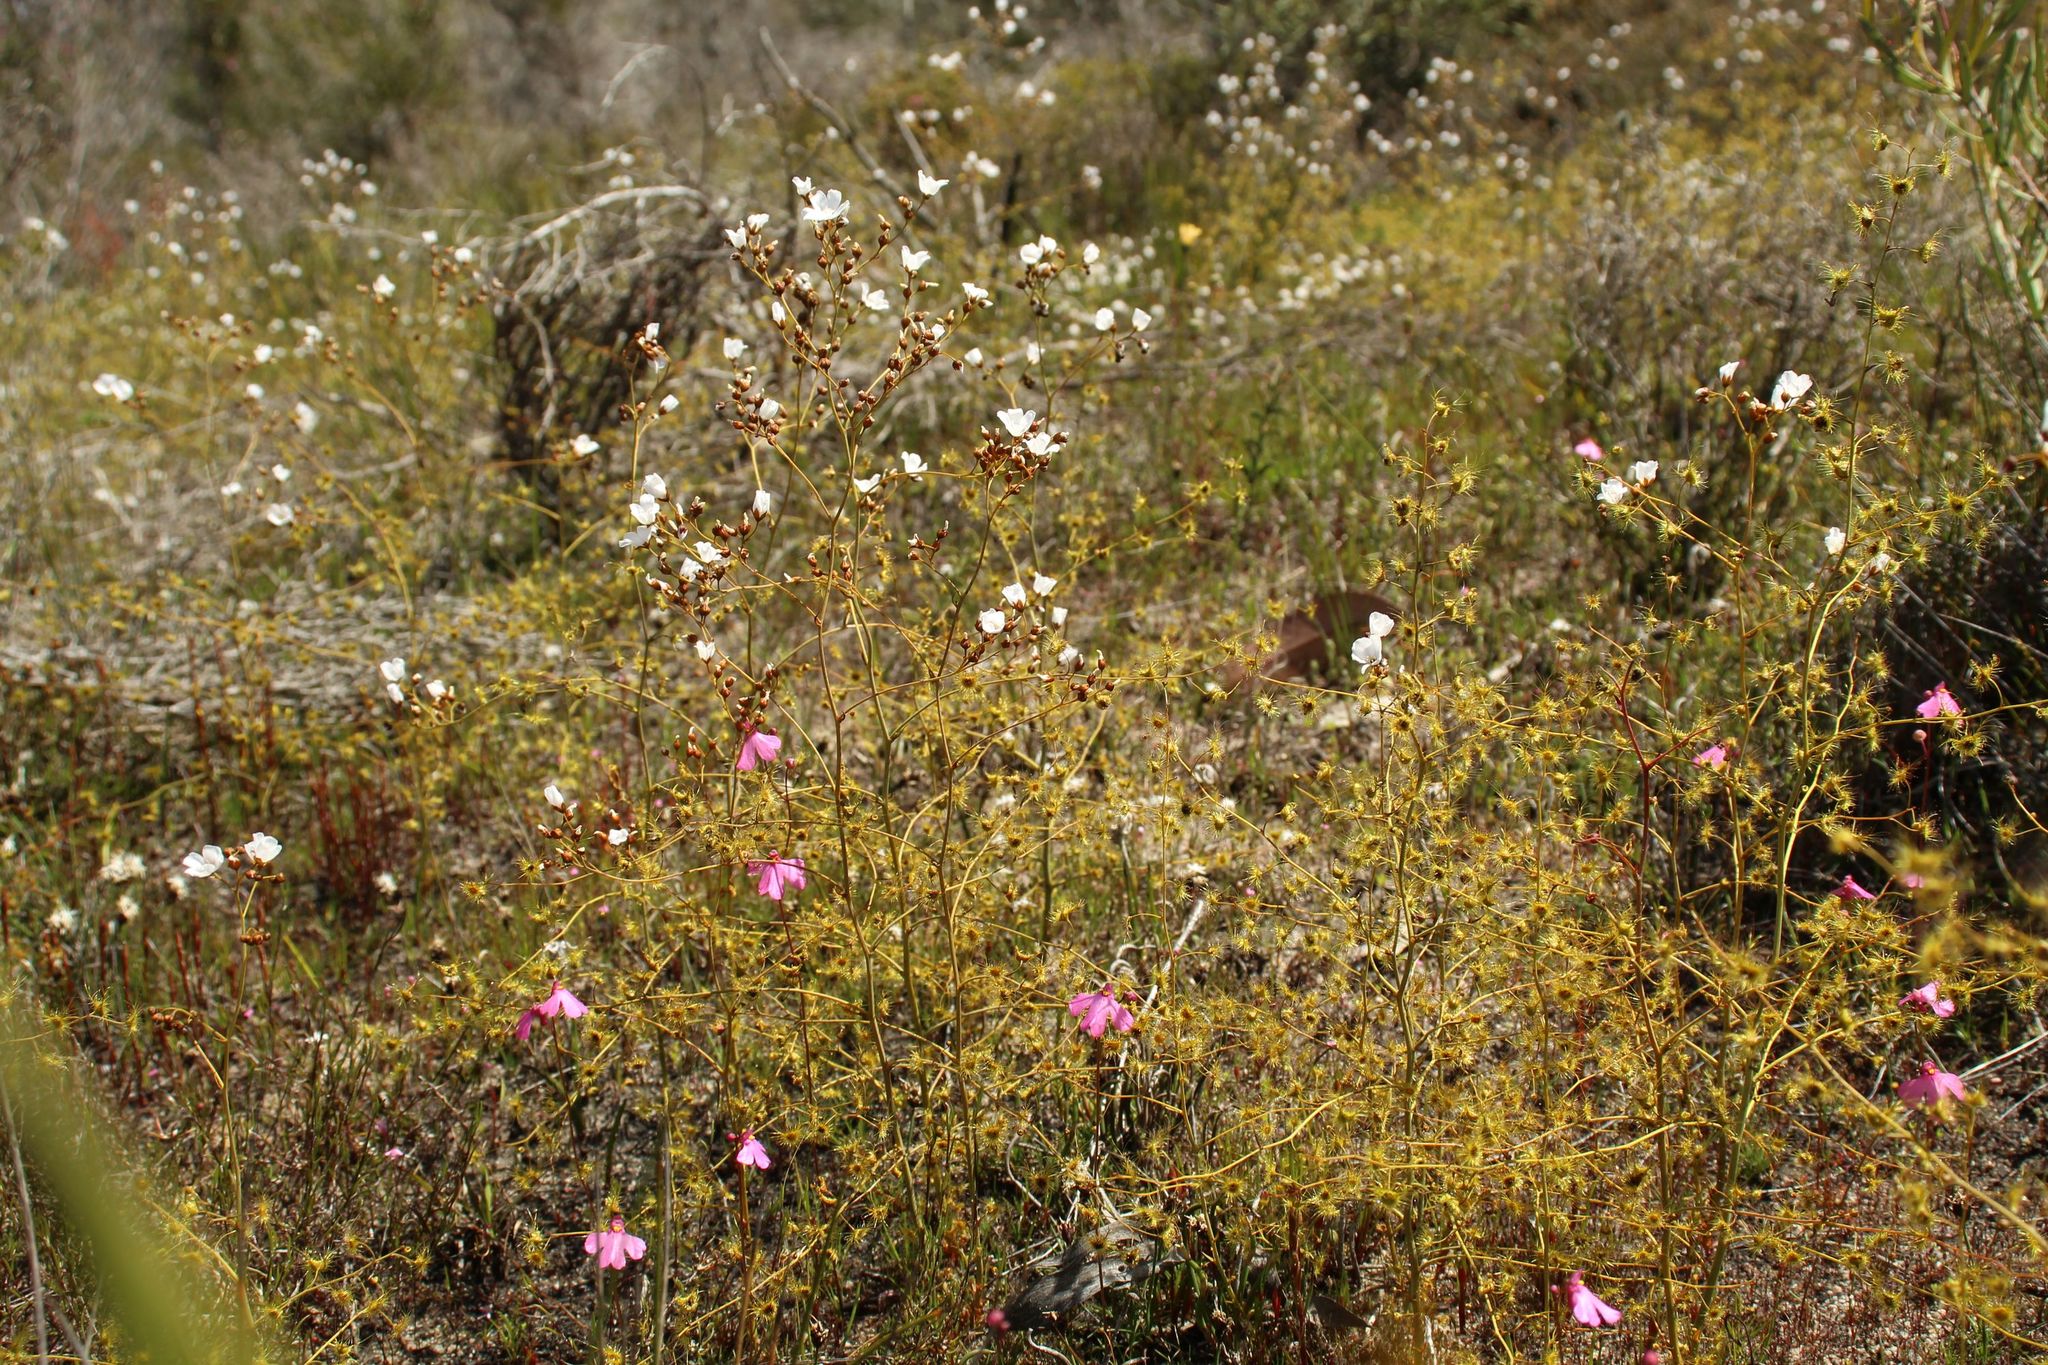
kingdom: Plantae
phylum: Tracheophyta
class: Magnoliopsida
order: Caryophyllales
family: Droseraceae
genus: Drosera
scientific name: Drosera gigantea
